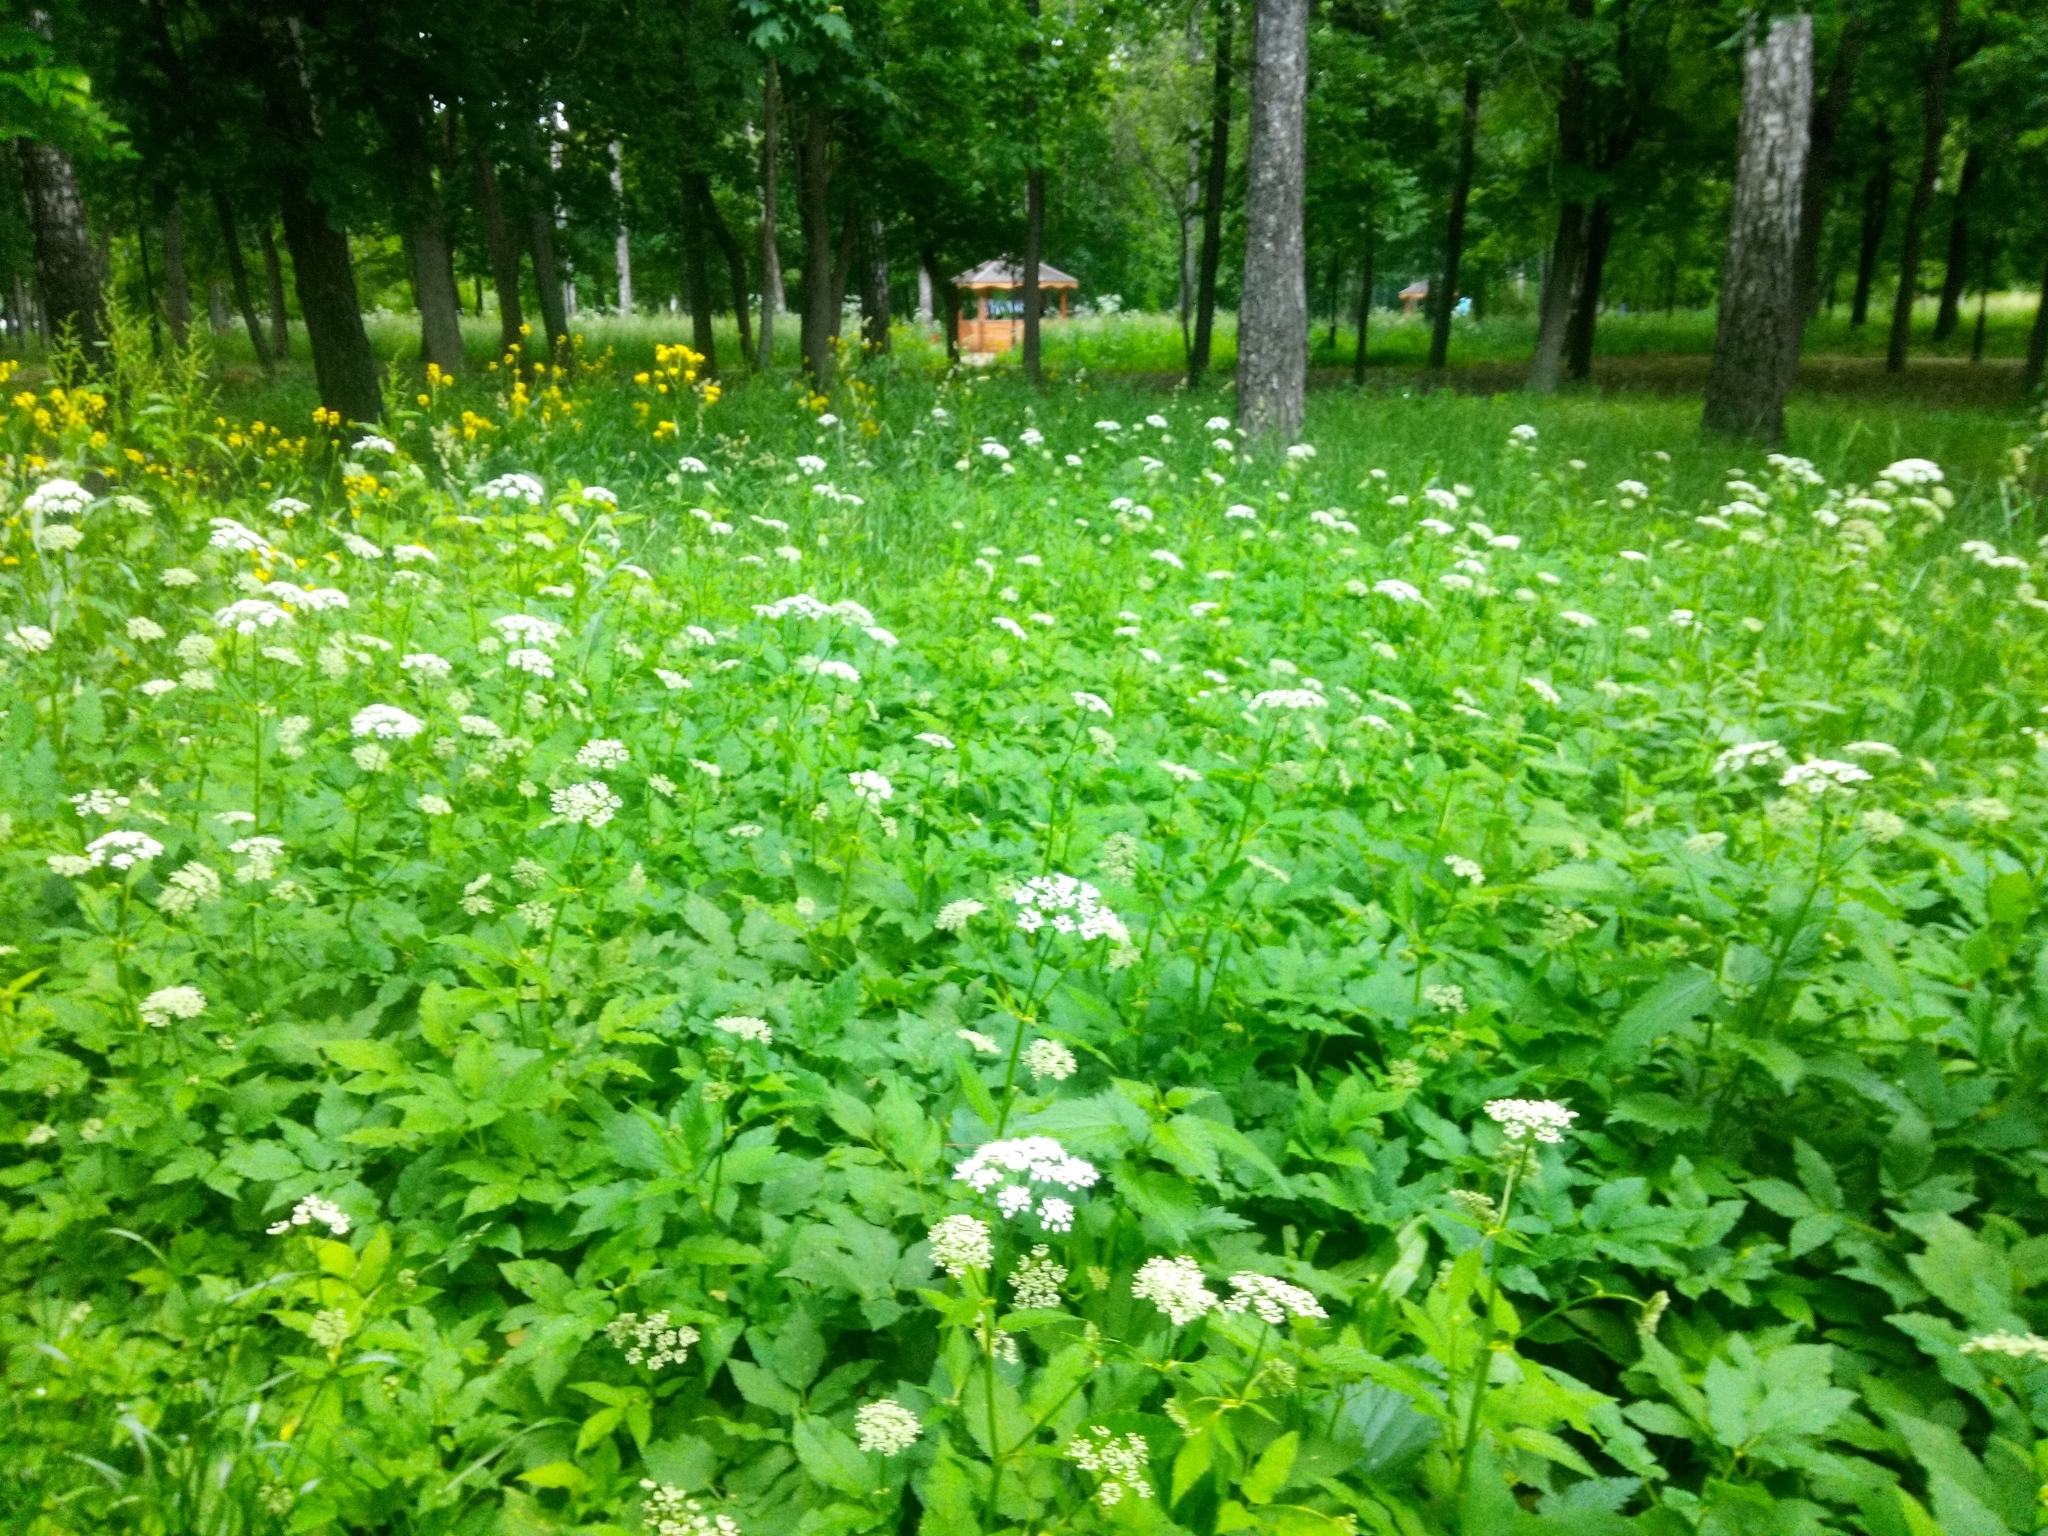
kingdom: Plantae
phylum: Tracheophyta
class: Magnoliopsida
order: Apiales
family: Apiaceae
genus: Aegopodium
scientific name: Aegopodium podagraria
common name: Ground-elder
